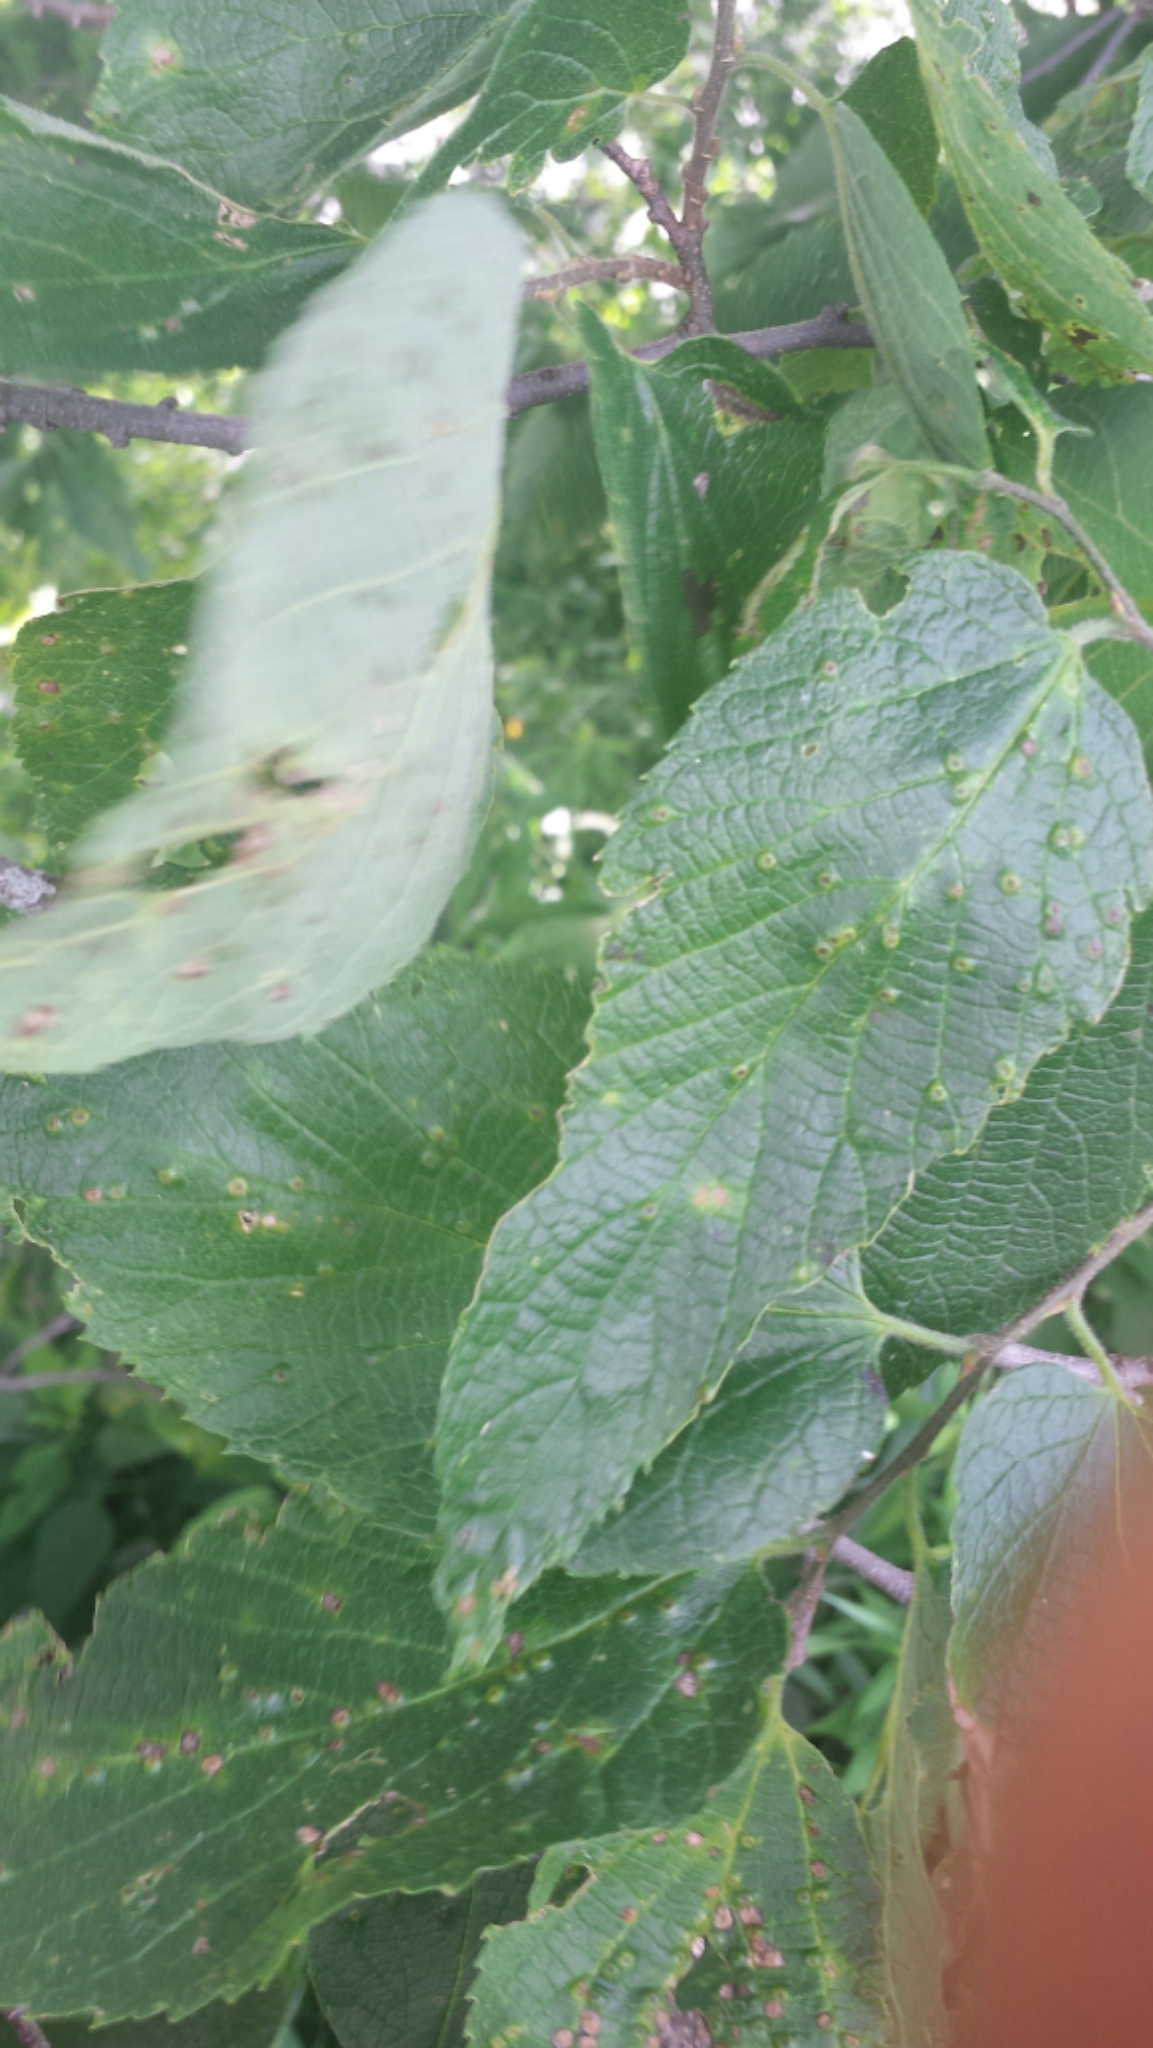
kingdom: Plantae
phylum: Tracheophyta
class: Magnoliopsida
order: Rosales
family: Cannabaceae
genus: Celtis
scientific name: Celtis occidentalis
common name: Common hackberry
